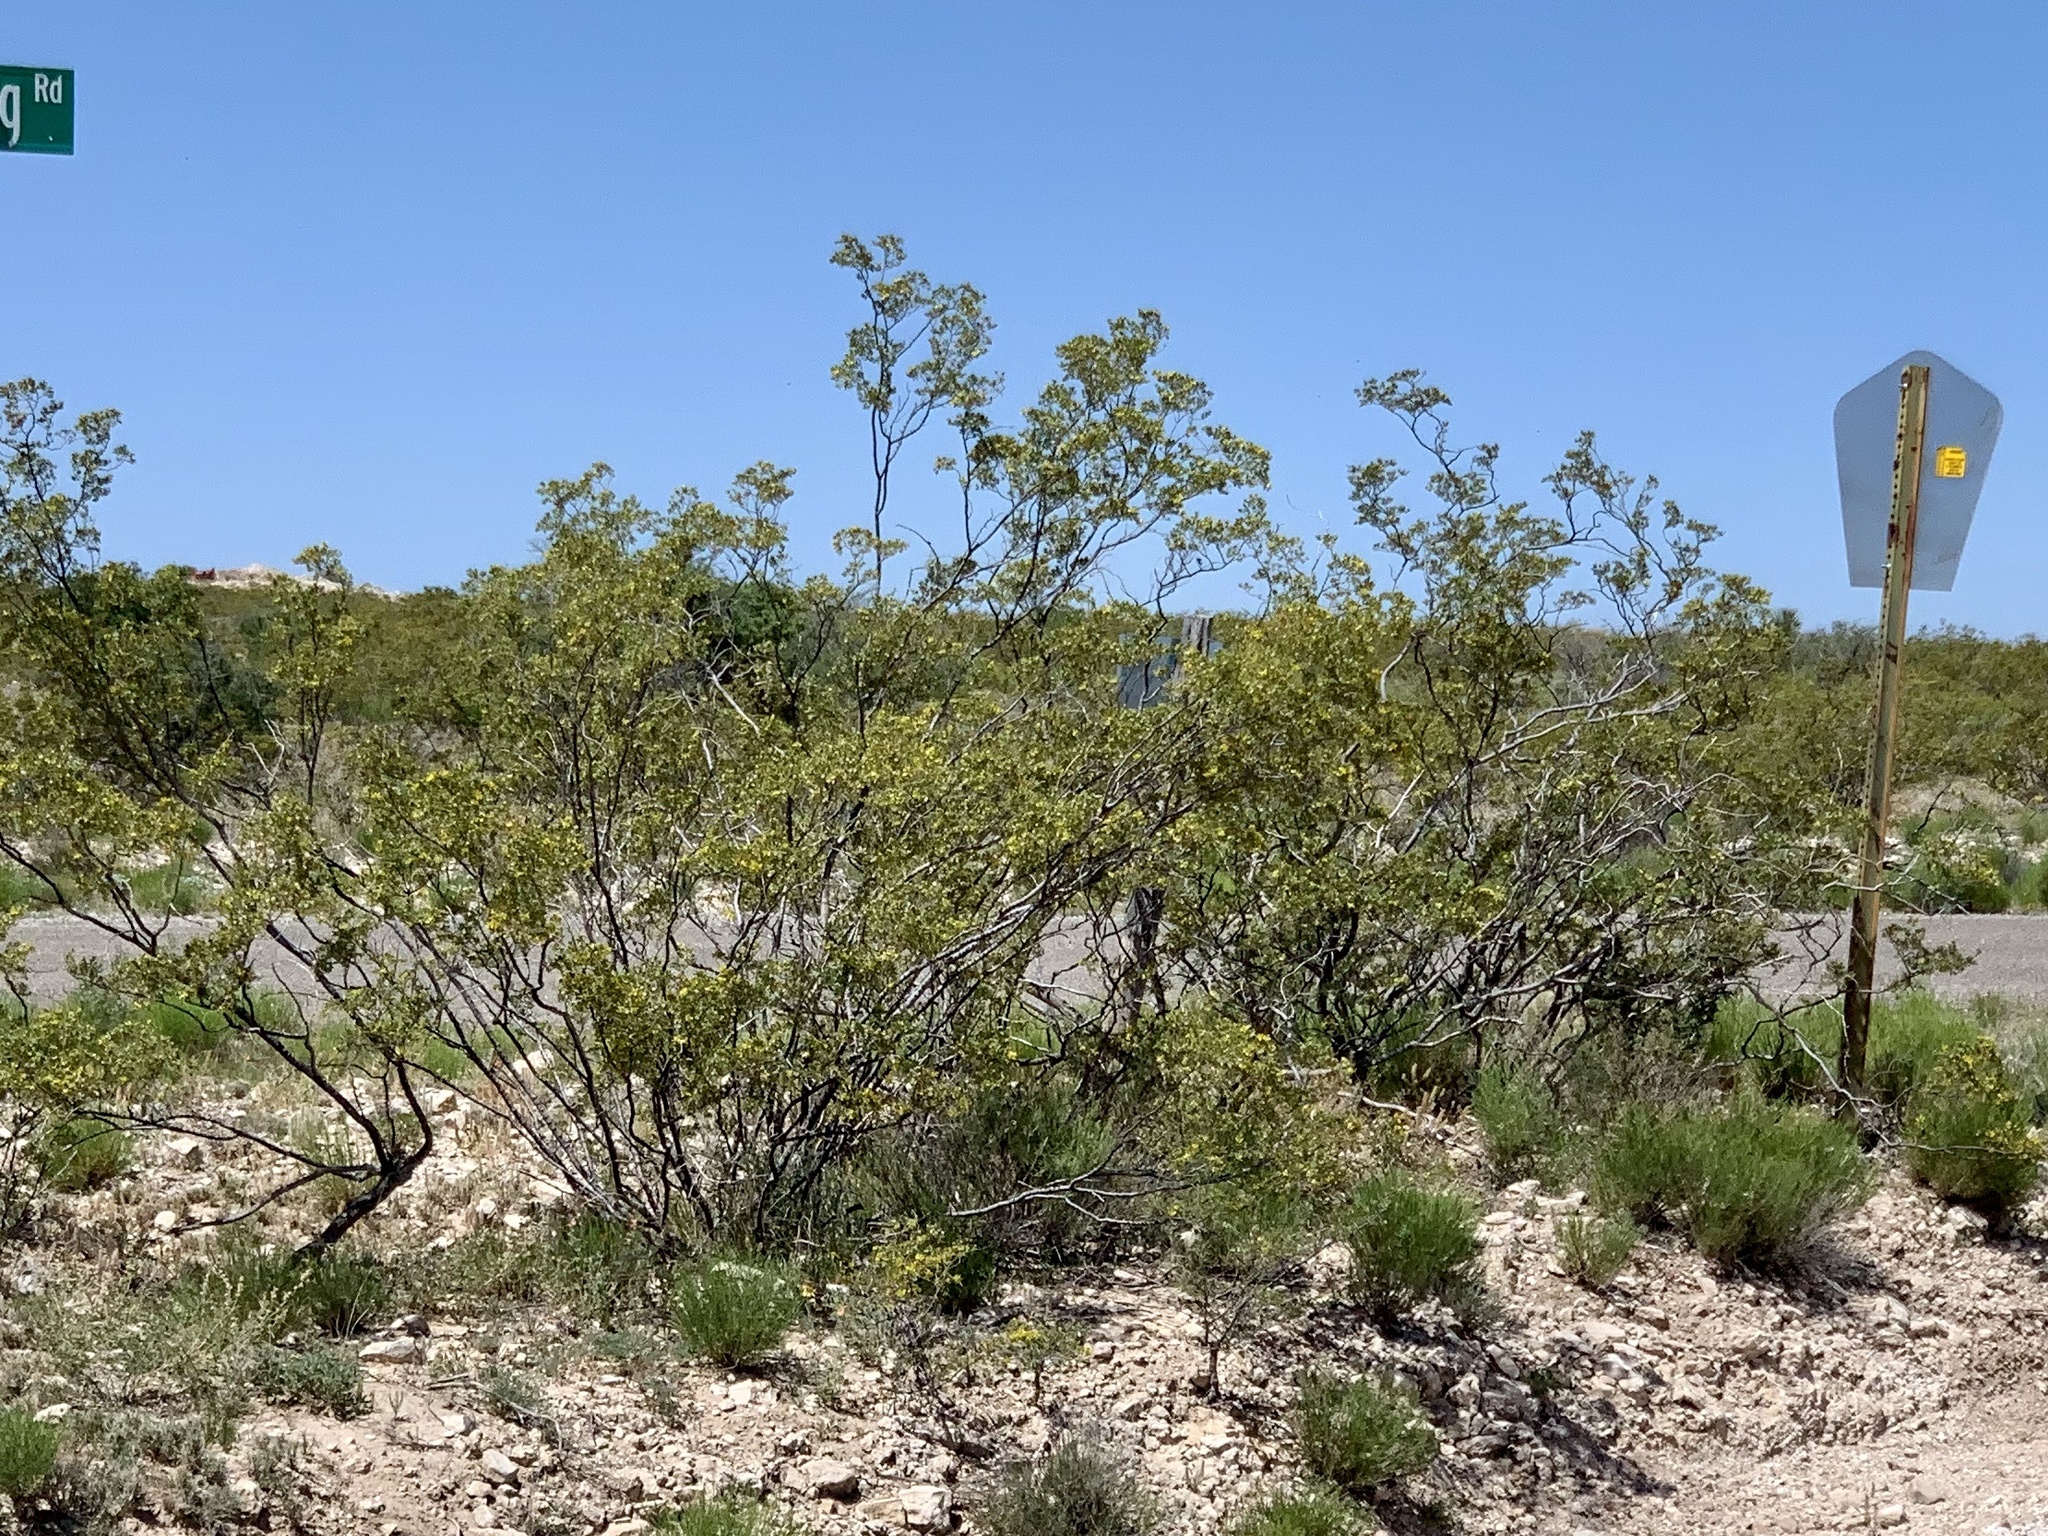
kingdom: Plantae
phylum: Tracheophyta
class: Magnoliopsida
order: Zygophyllales
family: Zygophyllaceae
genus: Larrea
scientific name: Larrea tridentata
